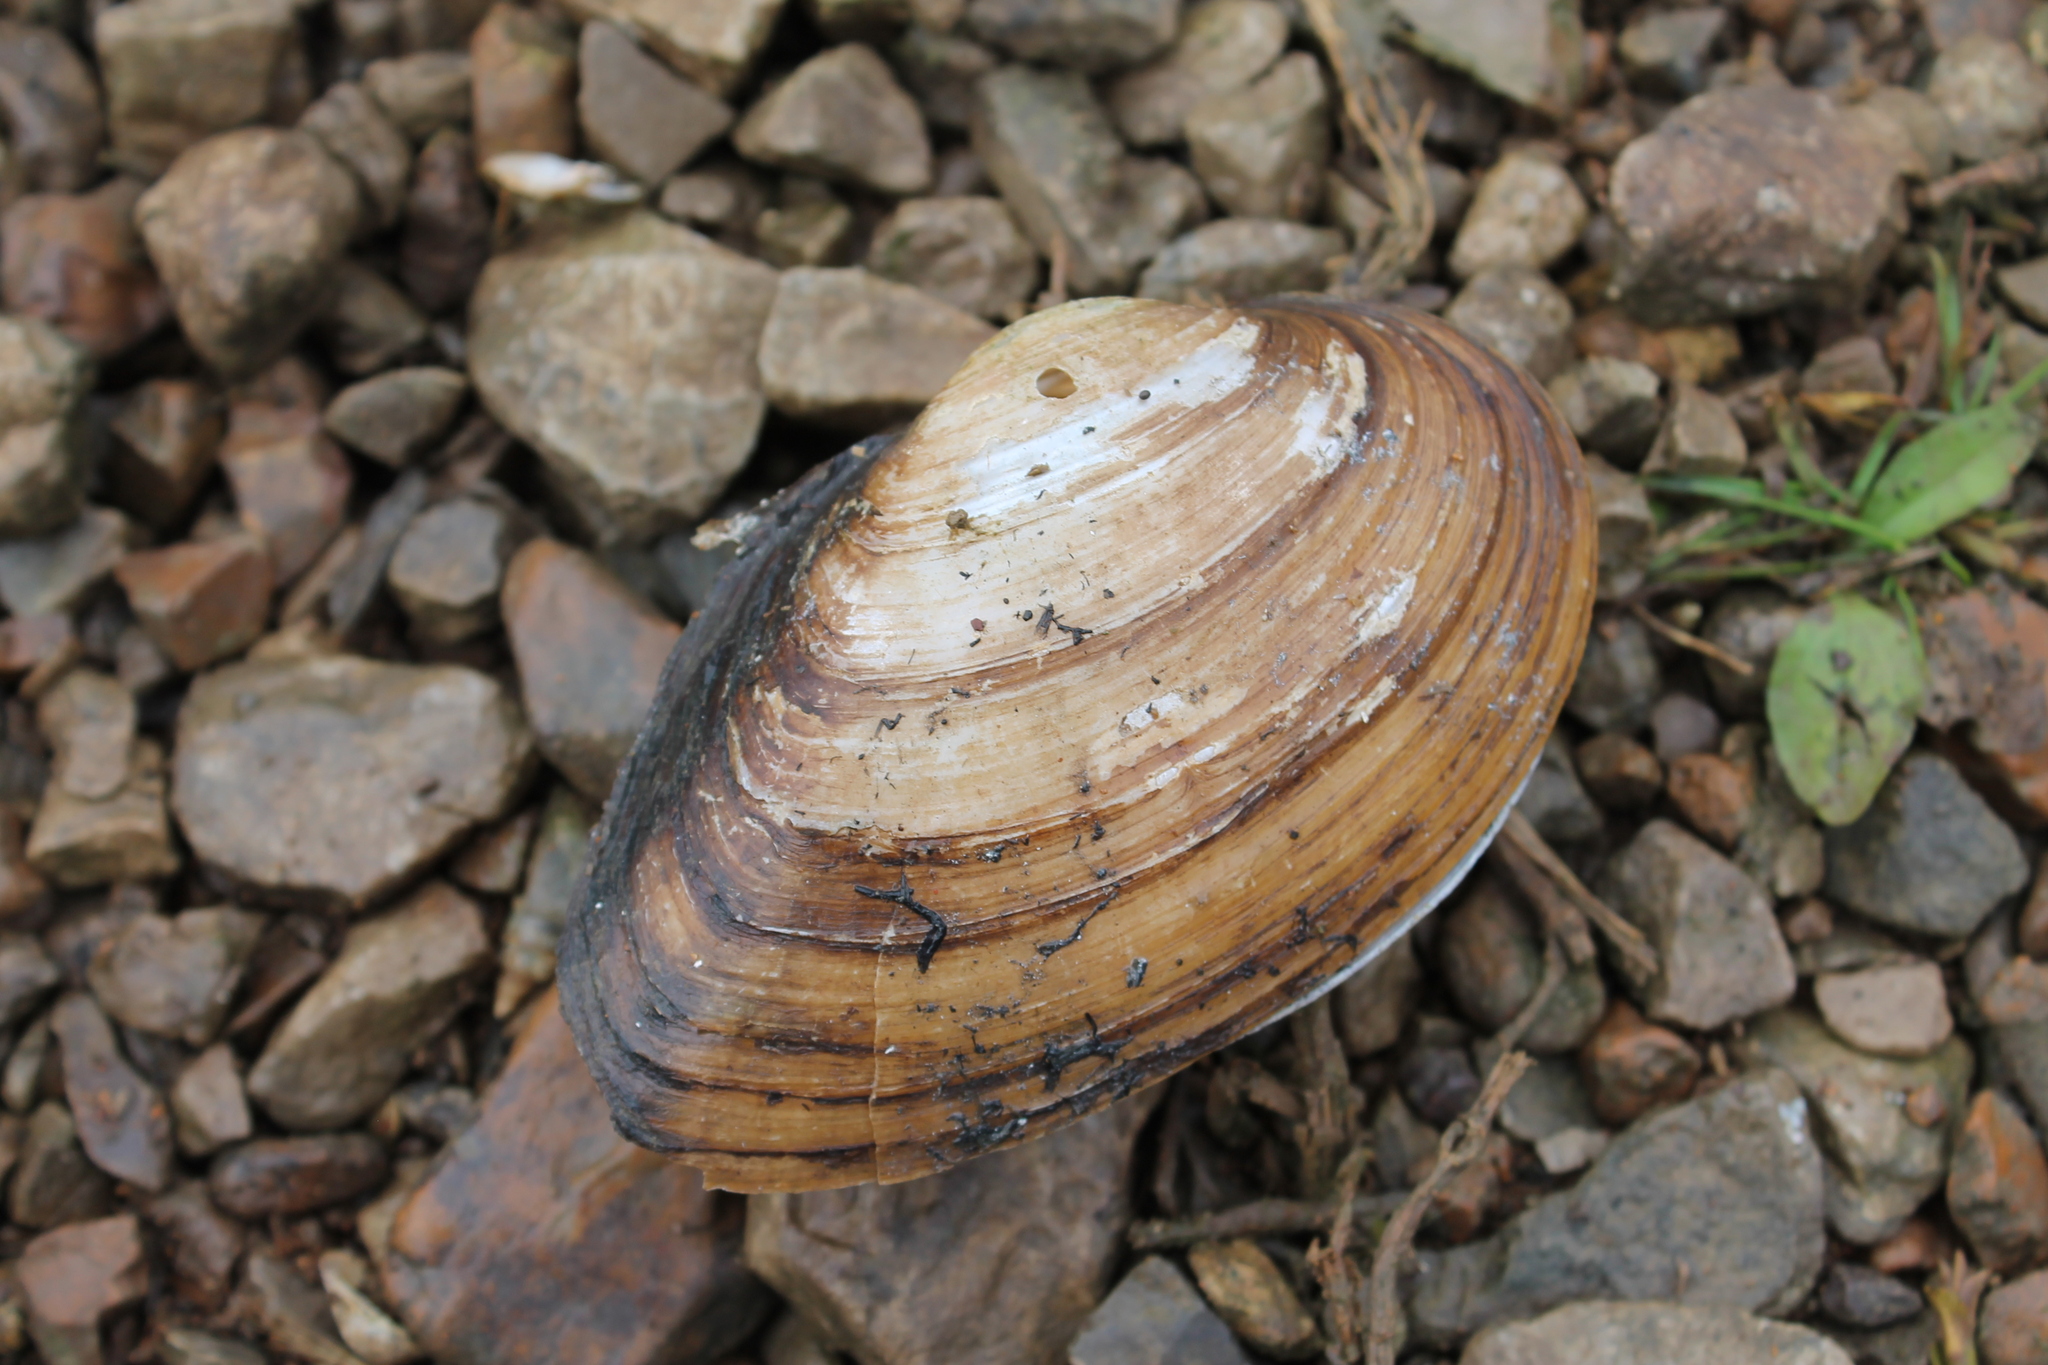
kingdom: Animalia
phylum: Mollusca
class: Bivalvia
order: Unionida
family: Unionidae
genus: Pyganodon
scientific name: Pyganodon grandis
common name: Giant floater
